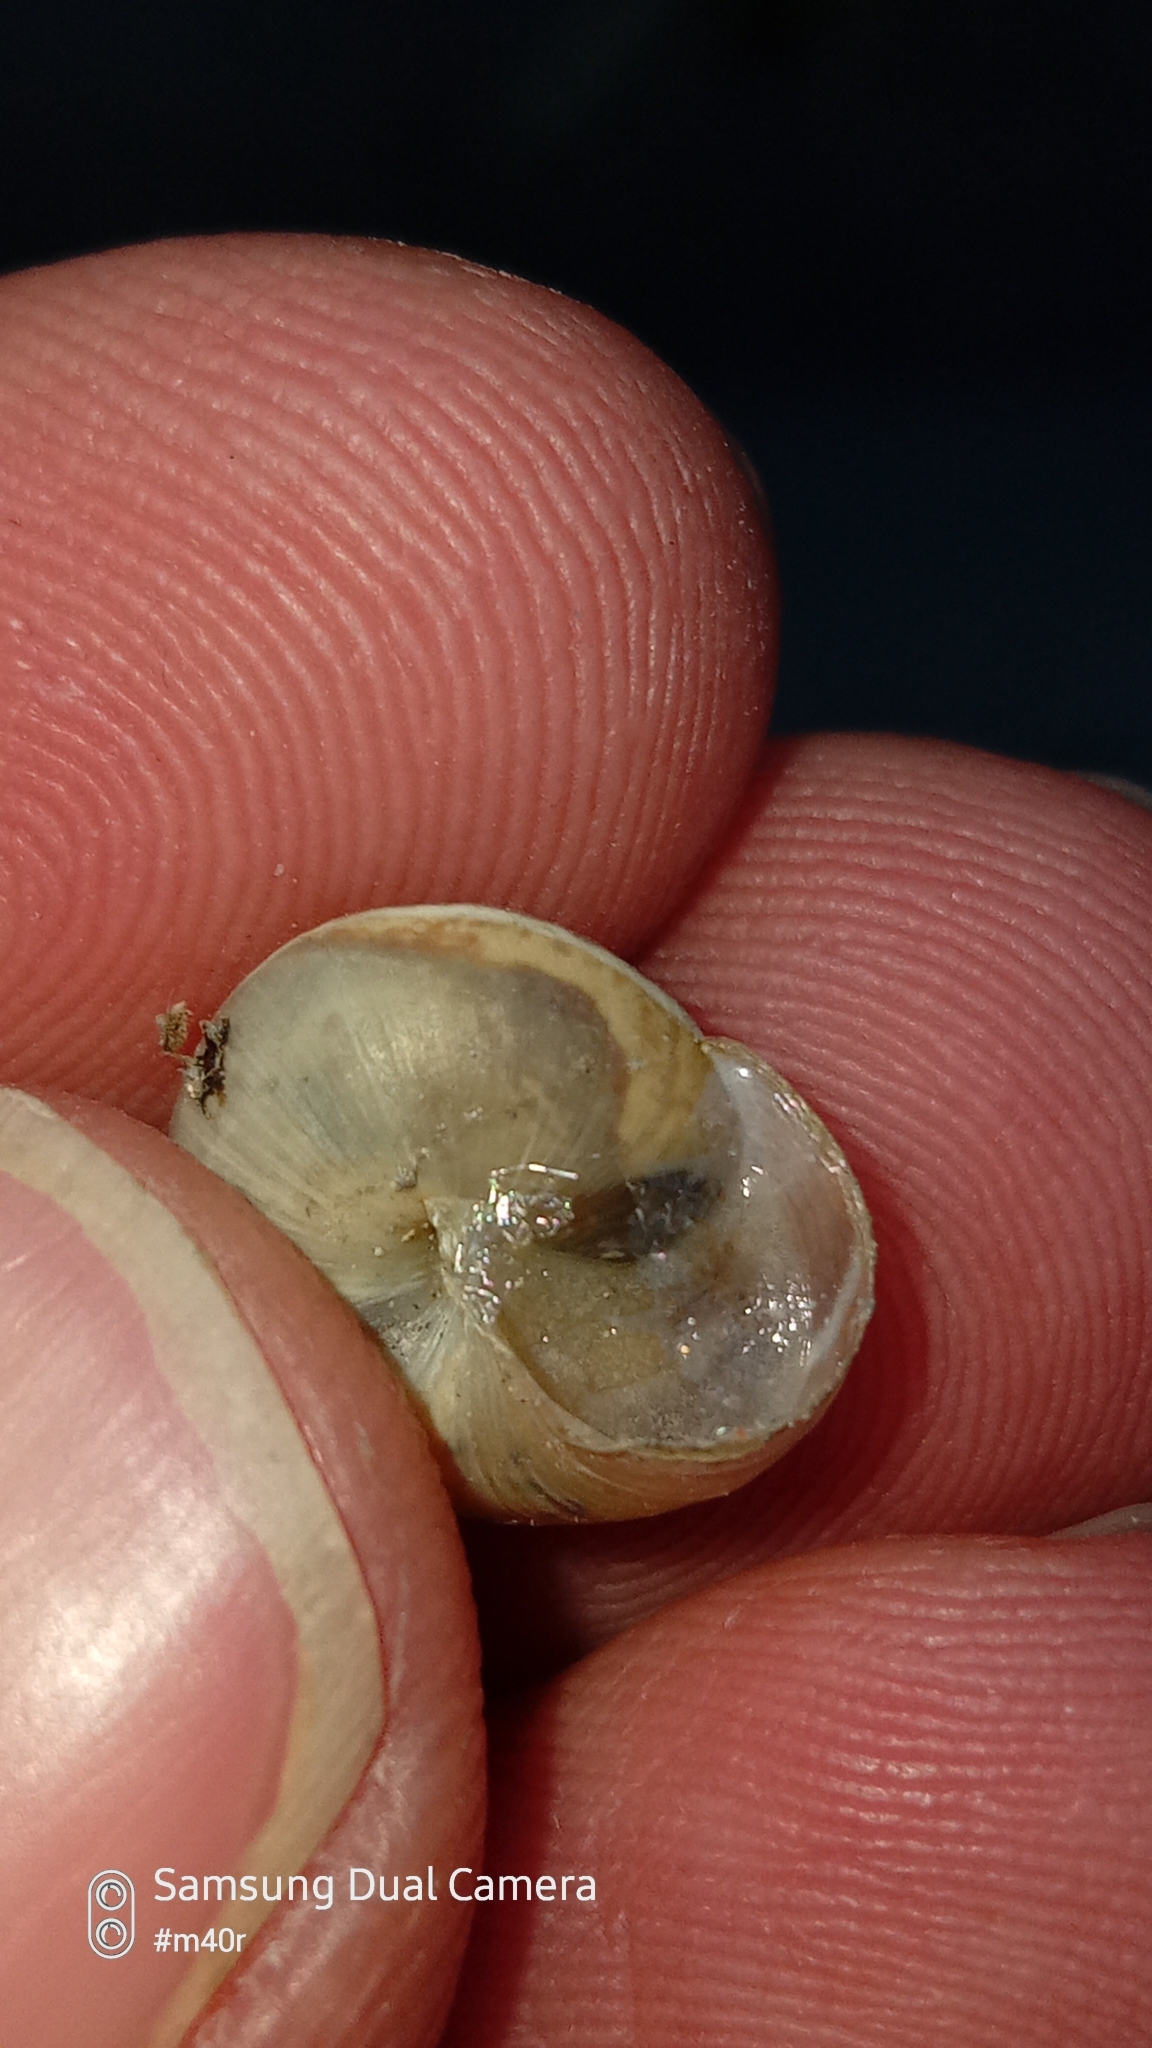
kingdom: Animalia
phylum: Mollusca
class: Gastropoda
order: Stylommatophora
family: Hygromiidae
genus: Harmozica
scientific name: Harmozica ravergiensis
